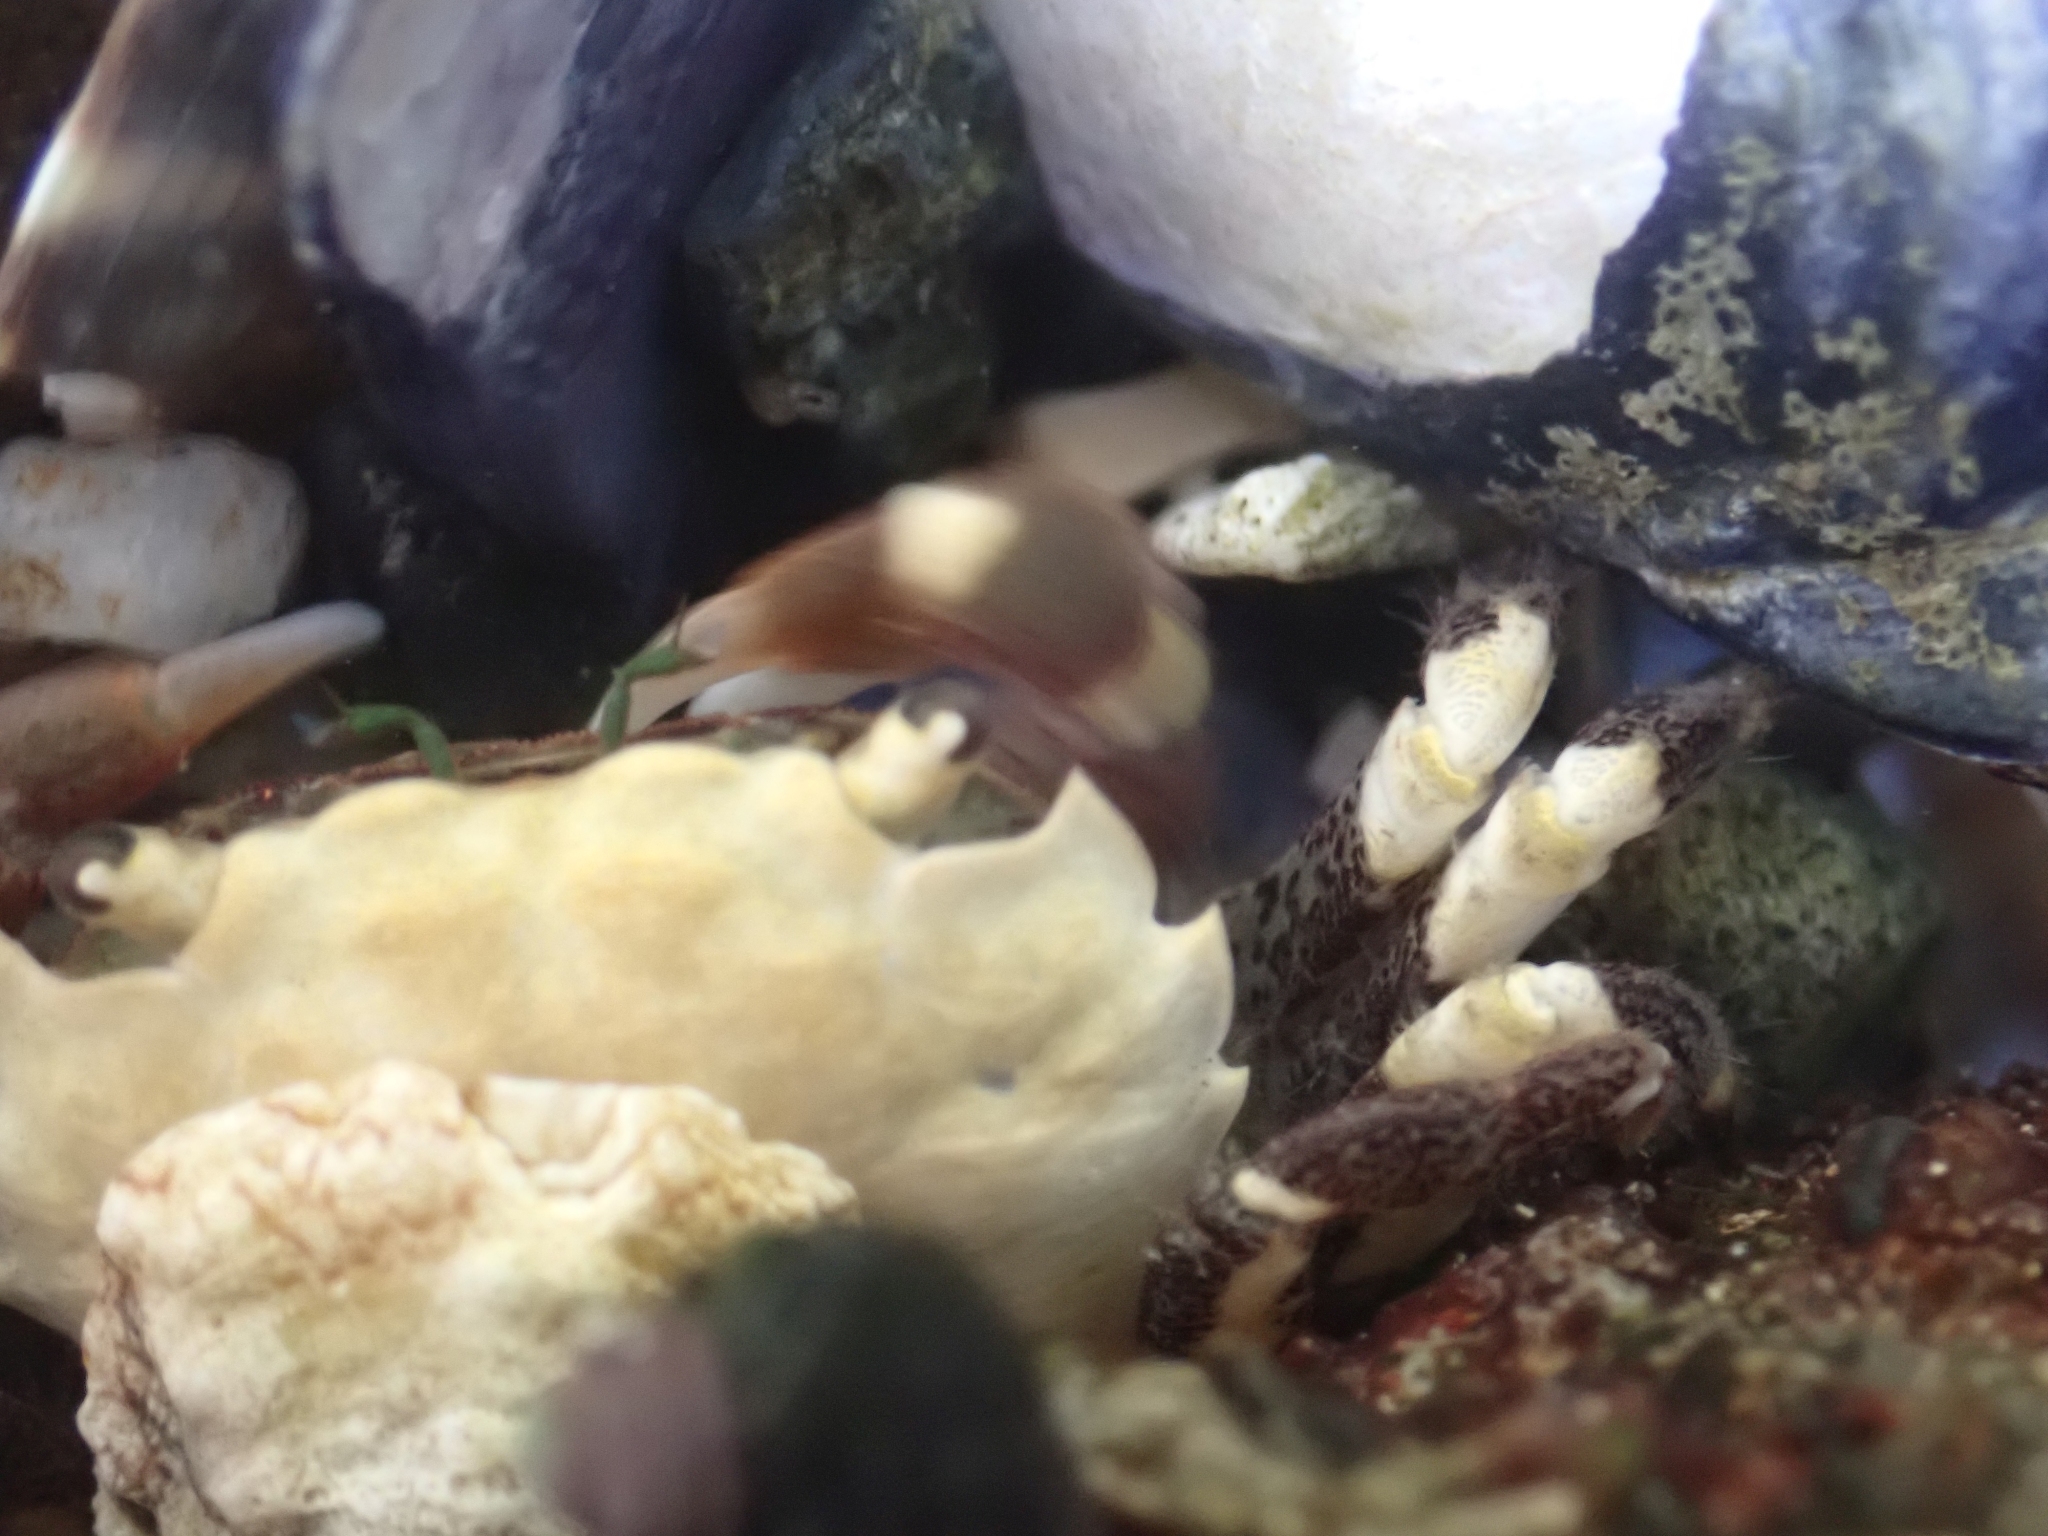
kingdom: Animalia
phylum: Arthropoda
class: Malacostraca
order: Decapoda
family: Varunidae
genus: Hemigrapsus
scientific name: Hemigrapsus oregonensis
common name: Yellow shore crab
